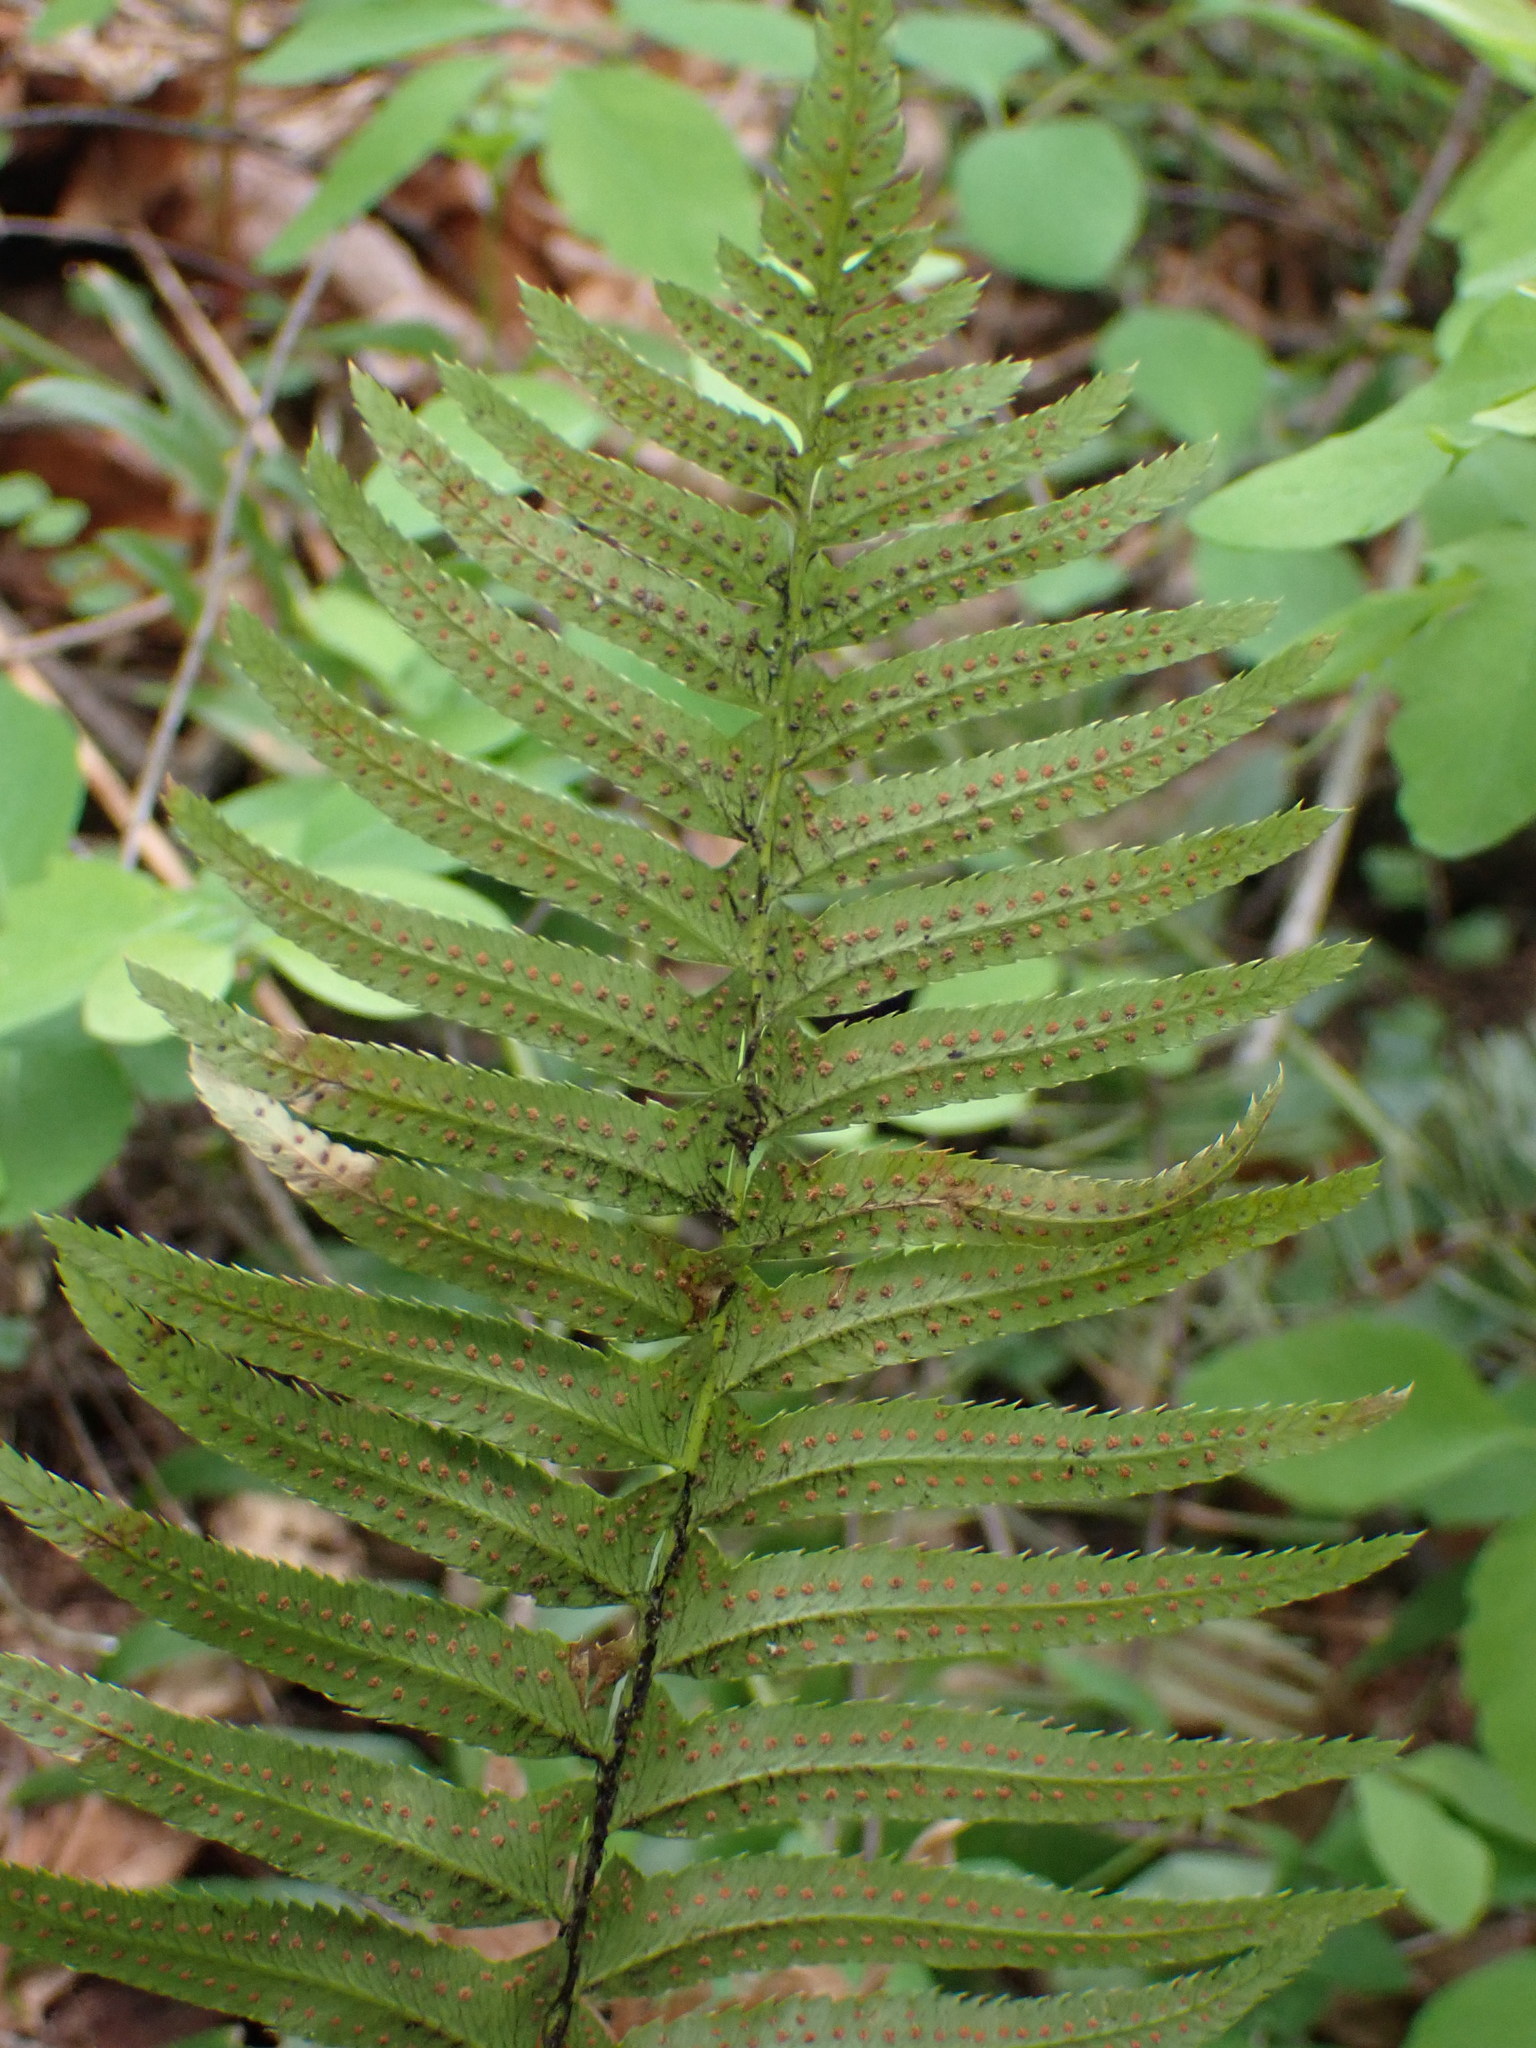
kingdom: Plantae
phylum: Tracheophyta
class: Polypodiopsida
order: Polypodiales
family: Dryopteridaceae
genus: Polystichum
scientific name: Polystichum munitum
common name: Western sword-fern
